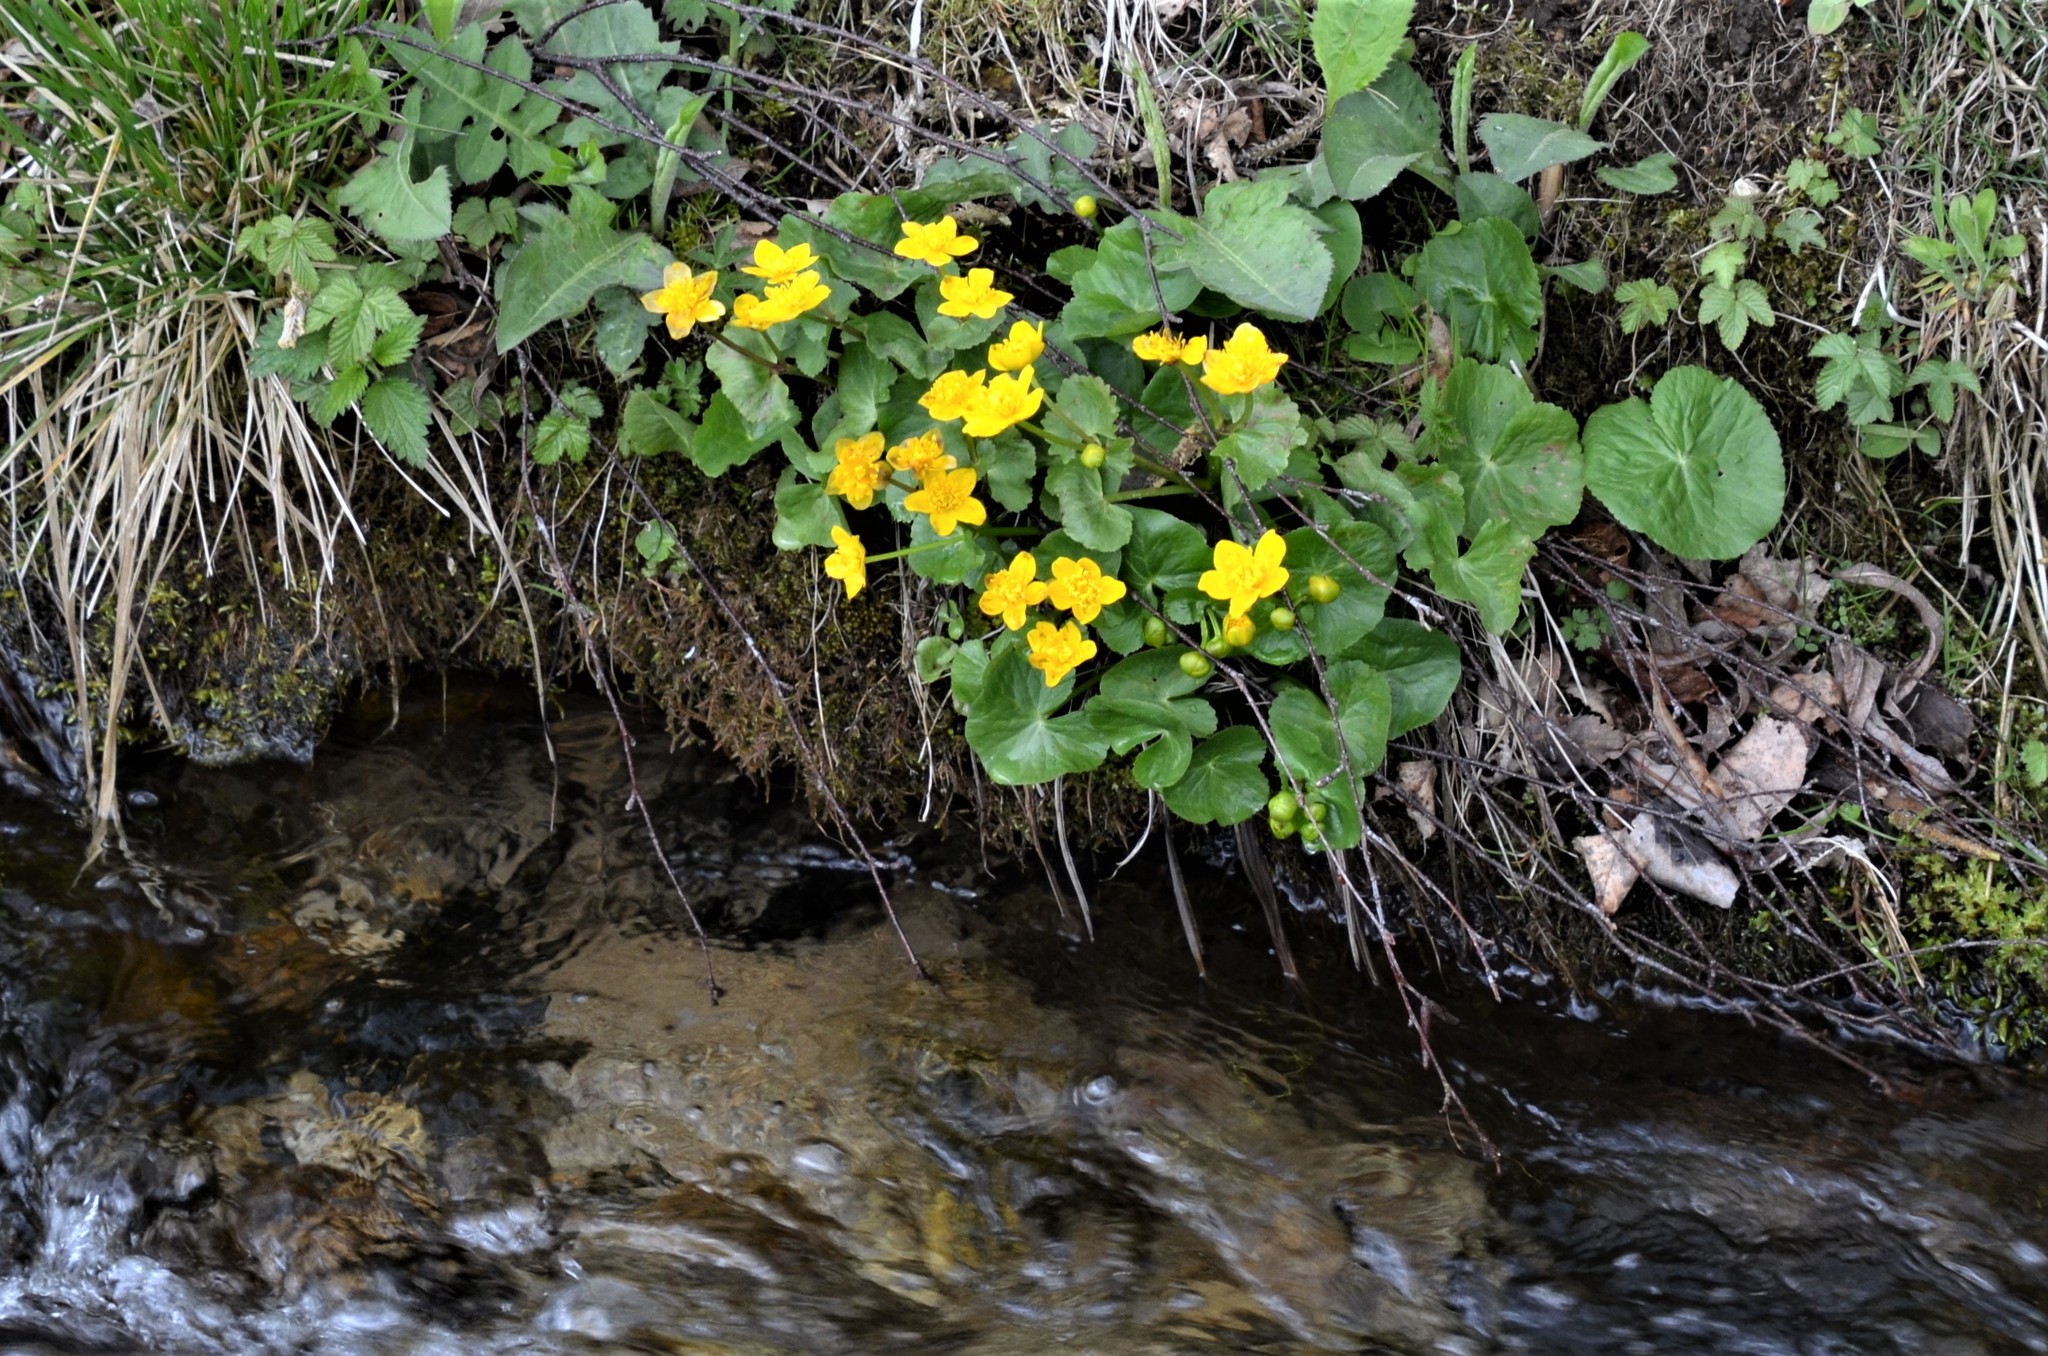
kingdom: Plantae
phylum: Tracheophyta
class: Magnoliopsida
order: Ranunculales
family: Ranunculaceae
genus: Caltha
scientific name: Caltha palustris
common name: Marsh marigold
